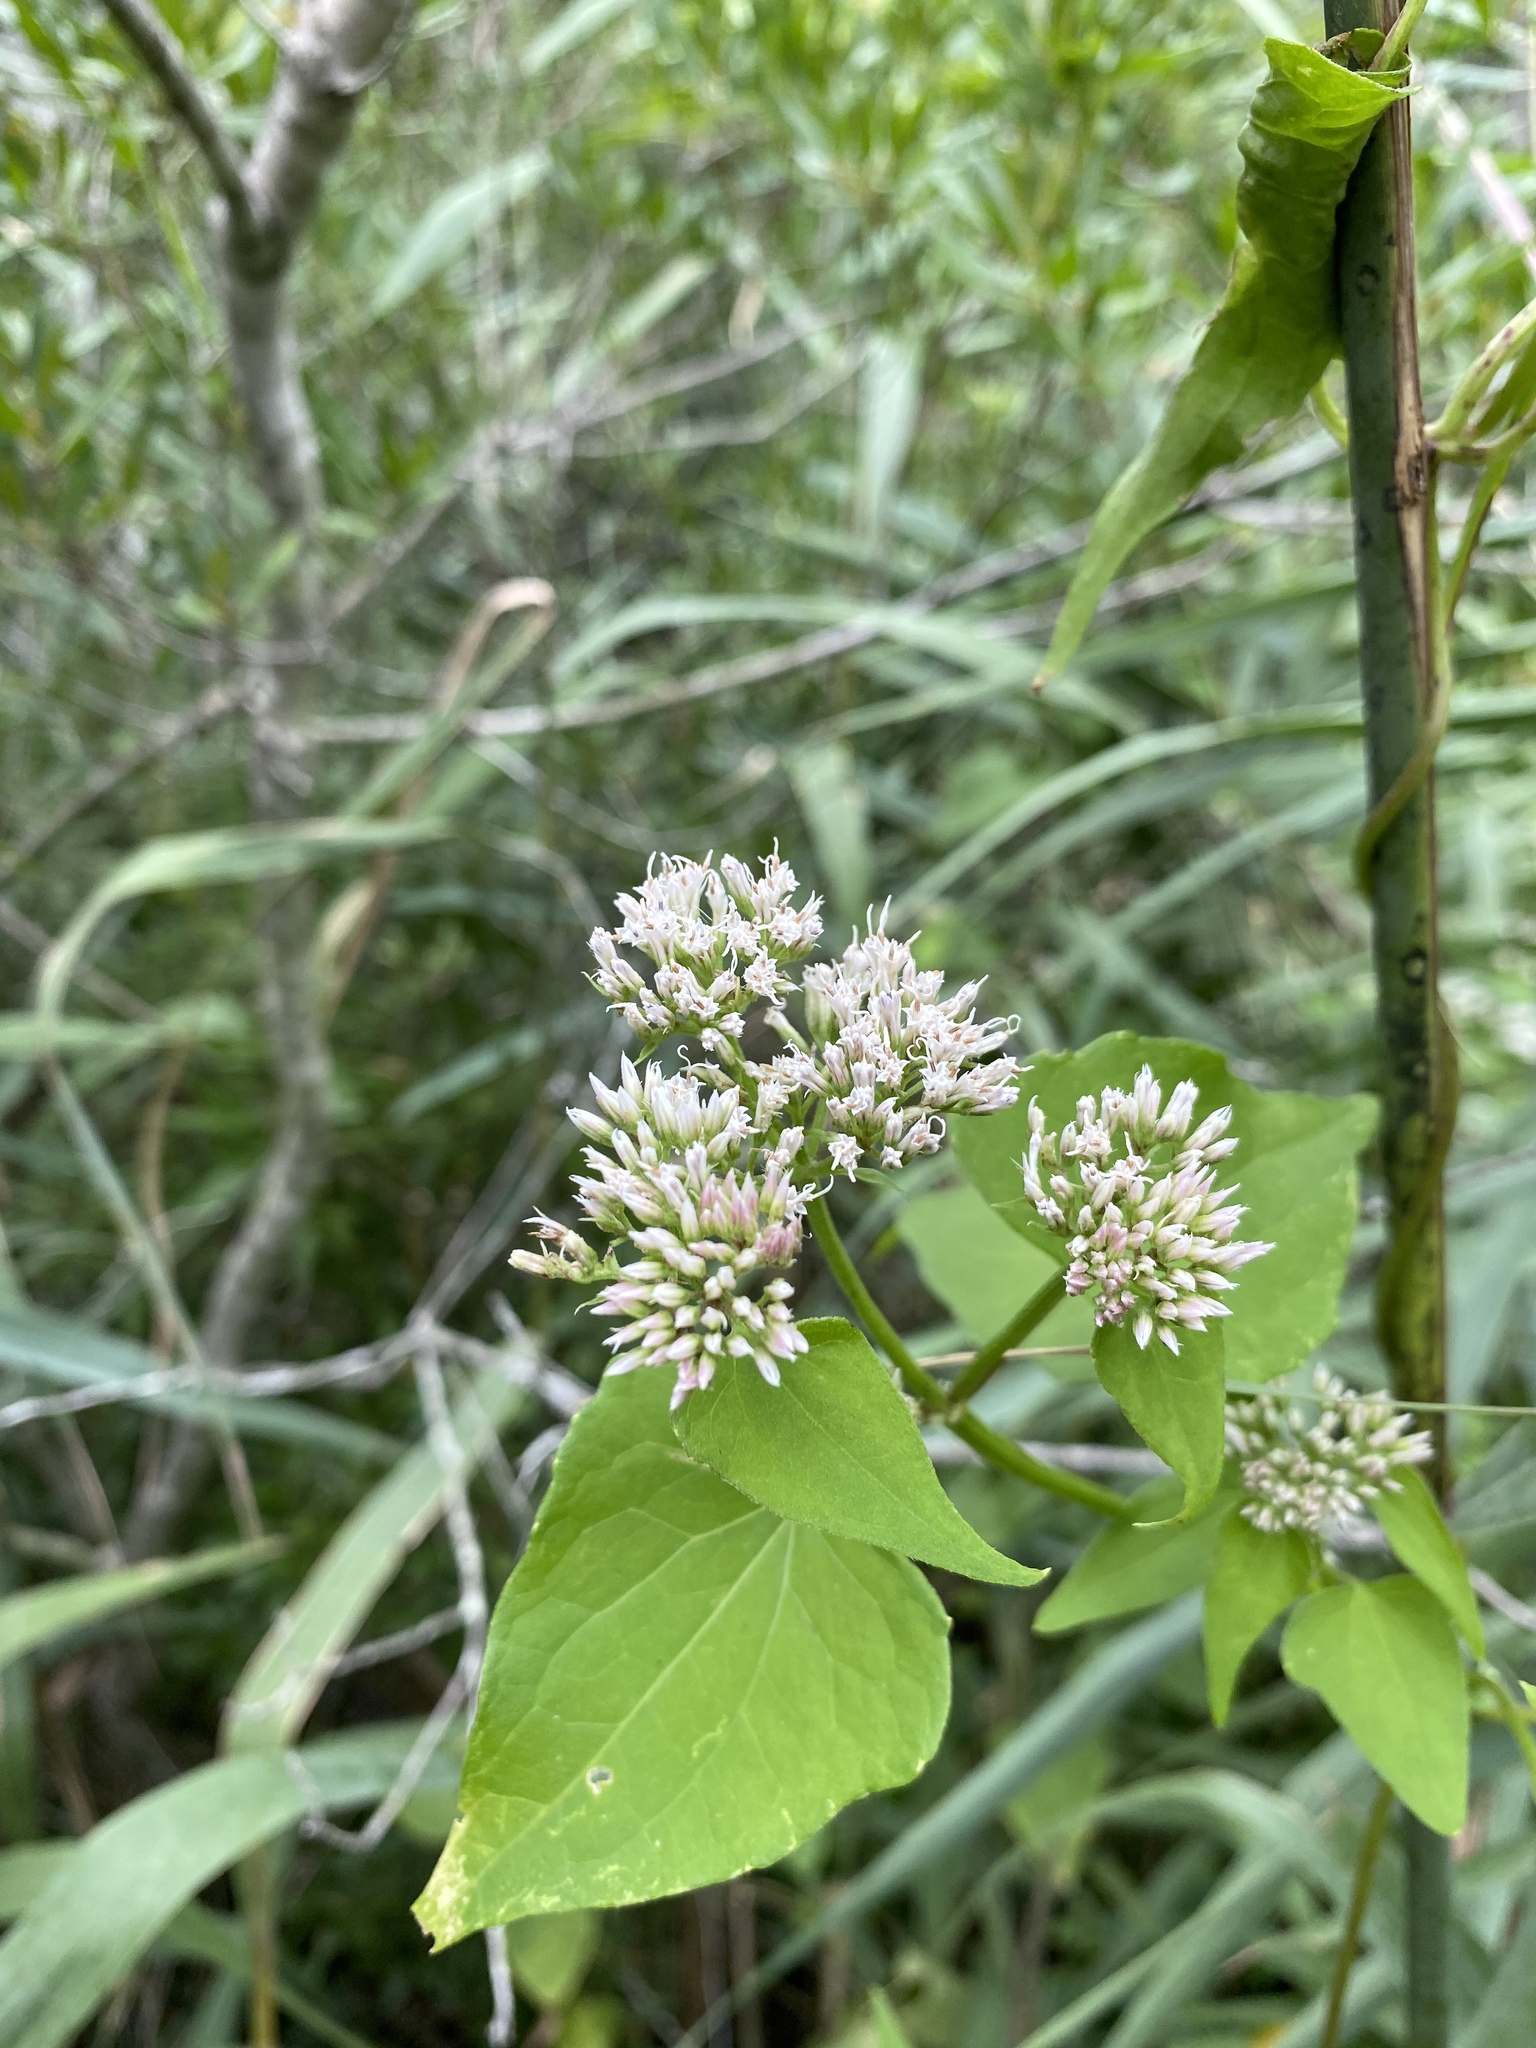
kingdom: Plantae
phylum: Tracheophyta
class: Magnoliopsida
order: Asterales
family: Asteraceae
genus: Mikania
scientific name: Mikania scandens
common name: Climbing hempvine
